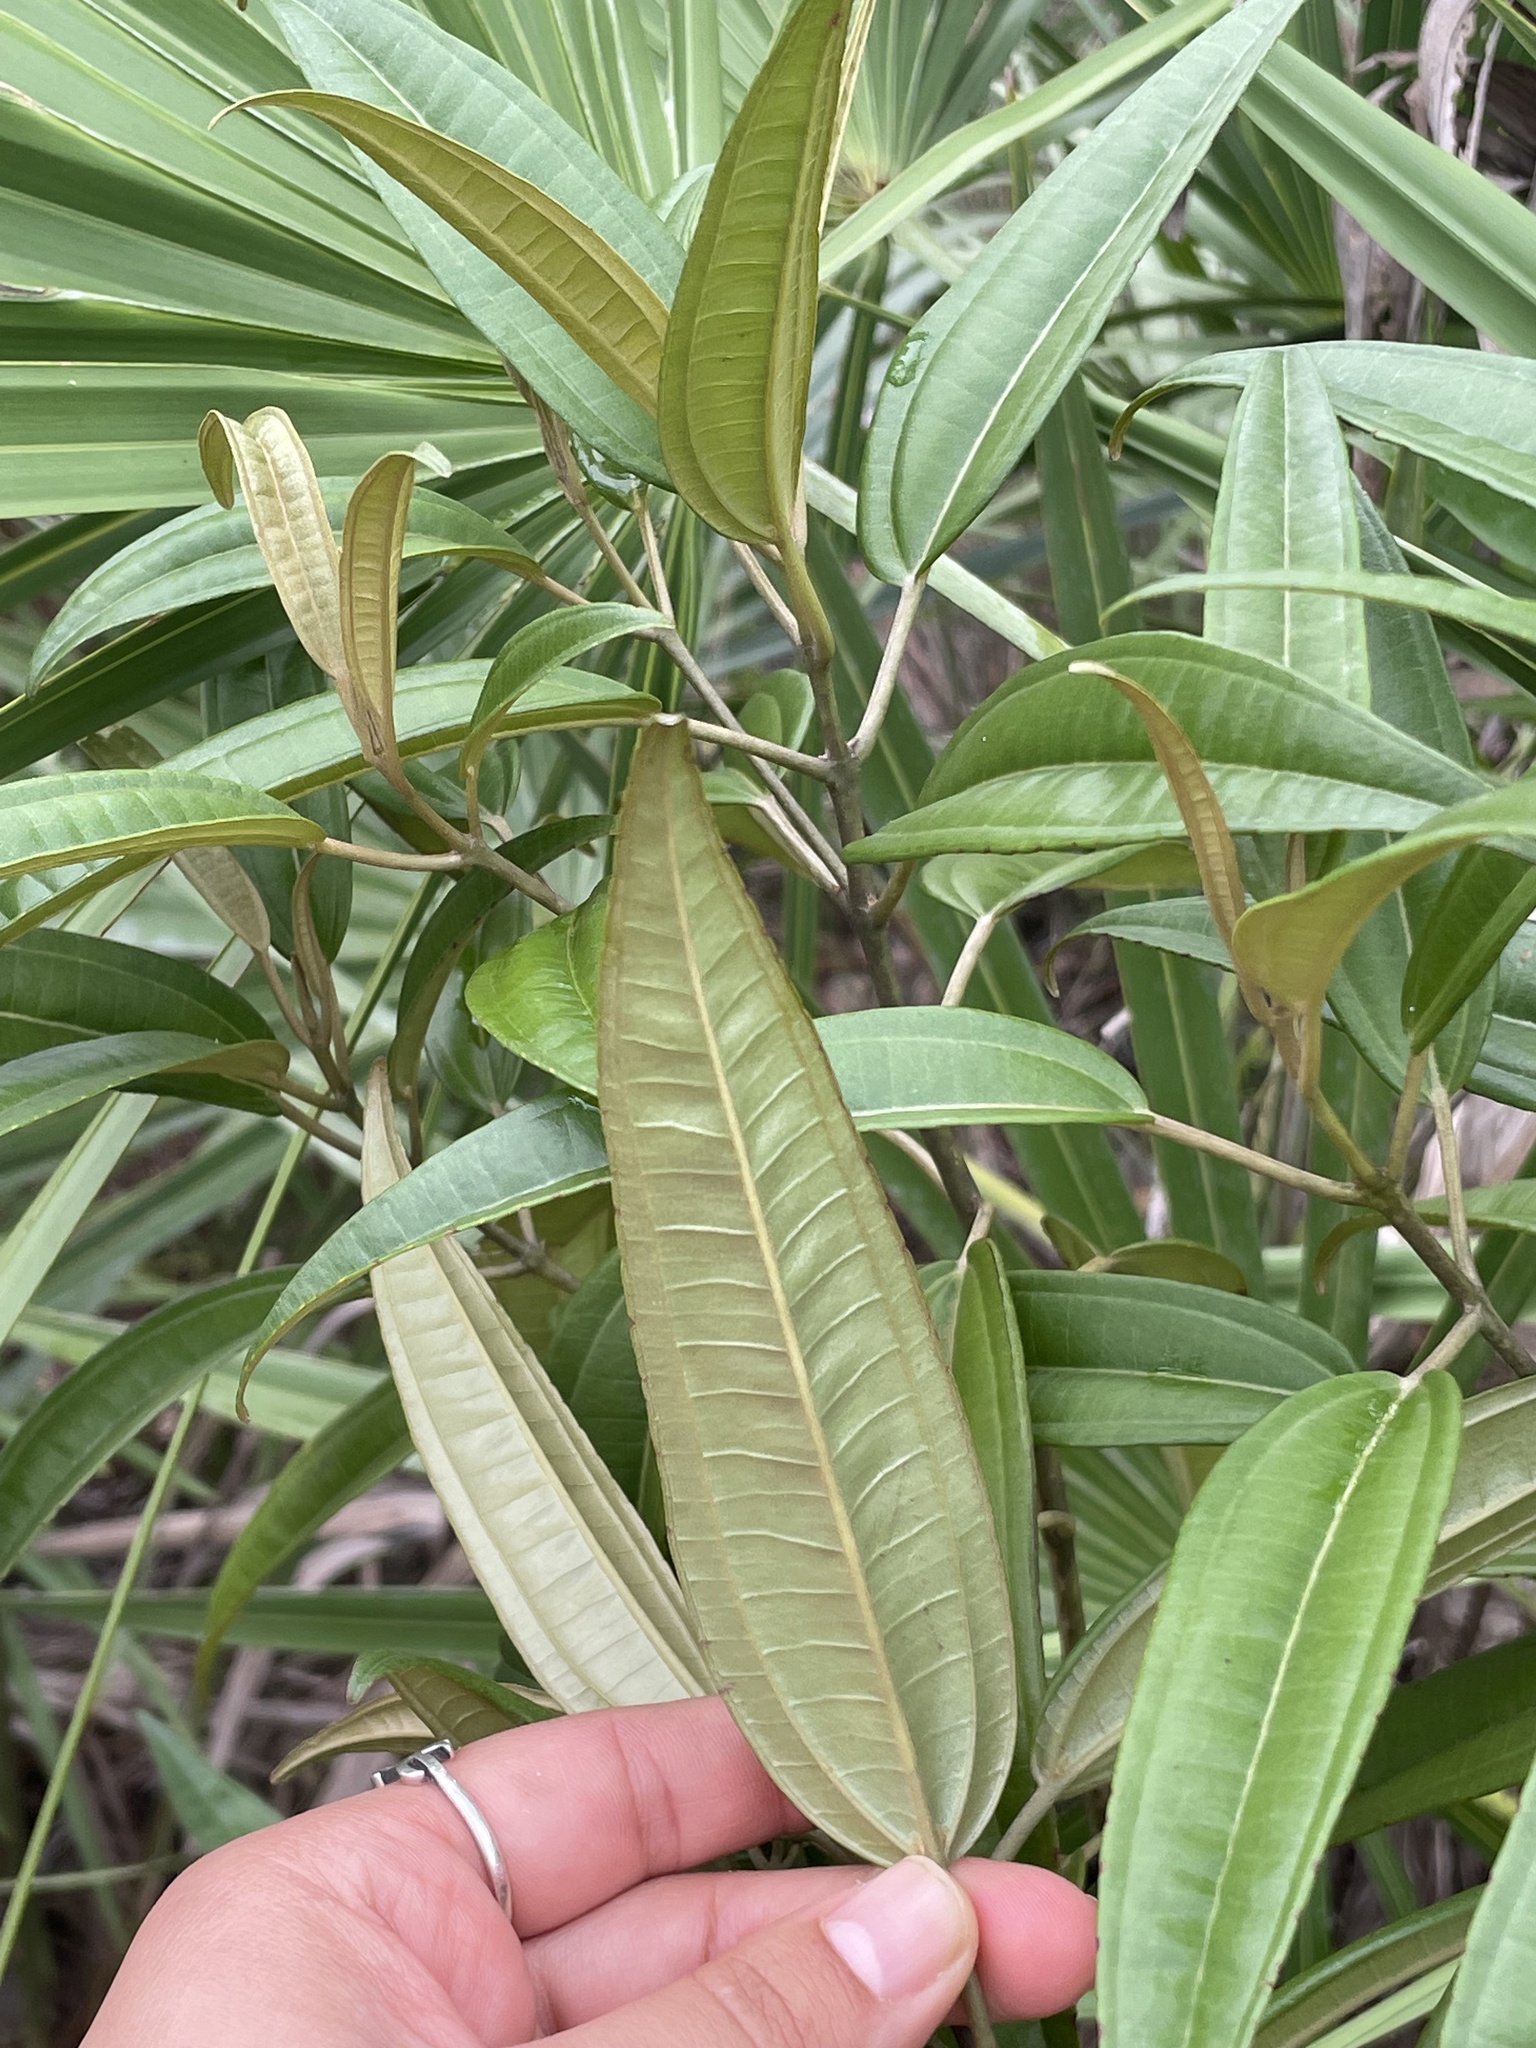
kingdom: Plantae
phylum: Tracheophyta
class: Magnoliopsida
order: Myrtales
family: Melastomataceae
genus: Miconia
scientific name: Miconia bicolor
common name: Johnnyberry
